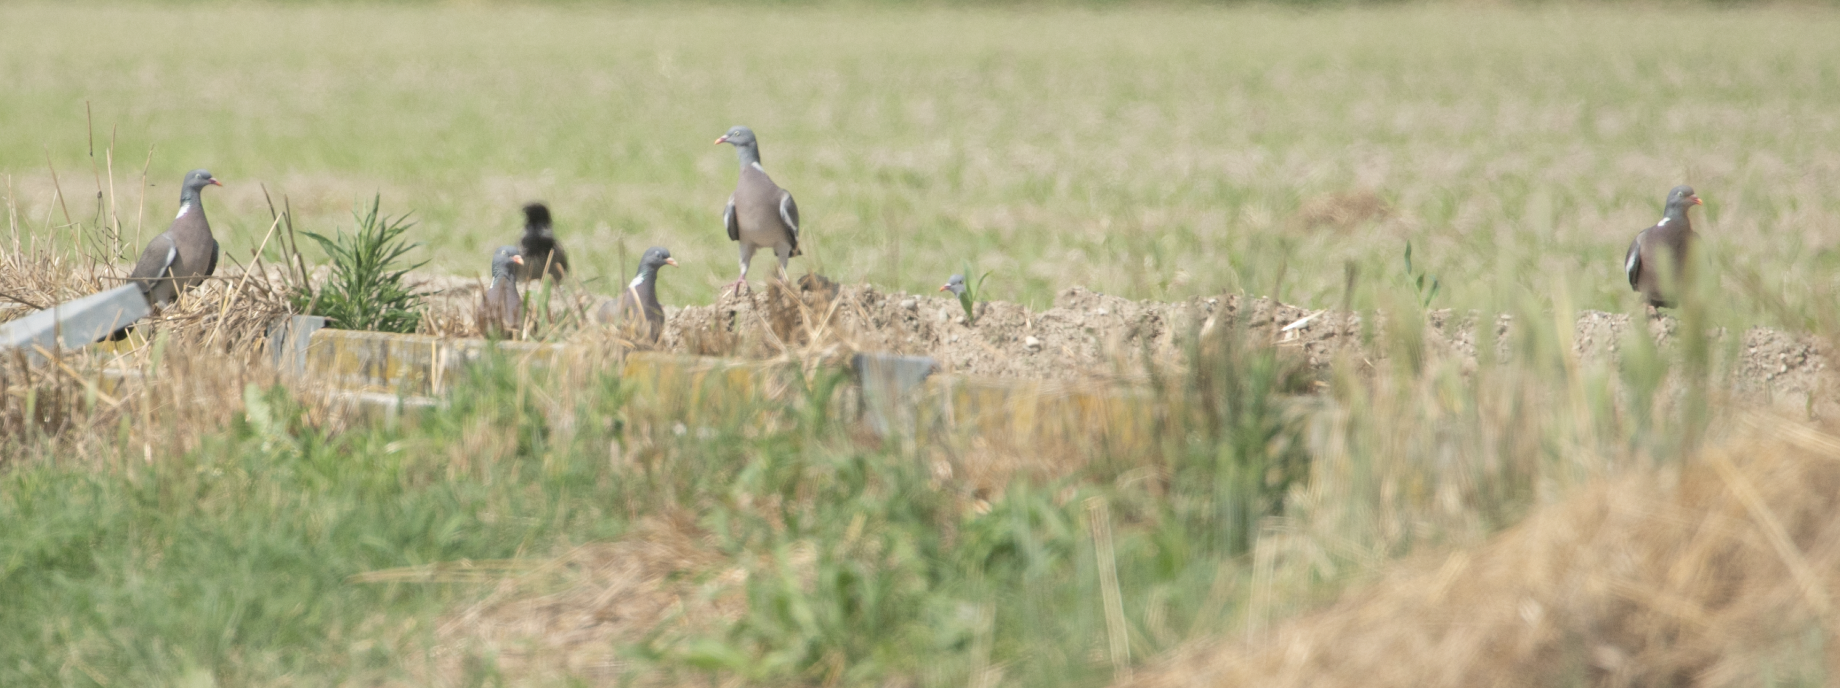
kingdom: Animalia
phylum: Chordata
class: Aves
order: Columbiformes
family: Columbidae
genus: Columba
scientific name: Columba palumbus
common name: Common wood pigeon
